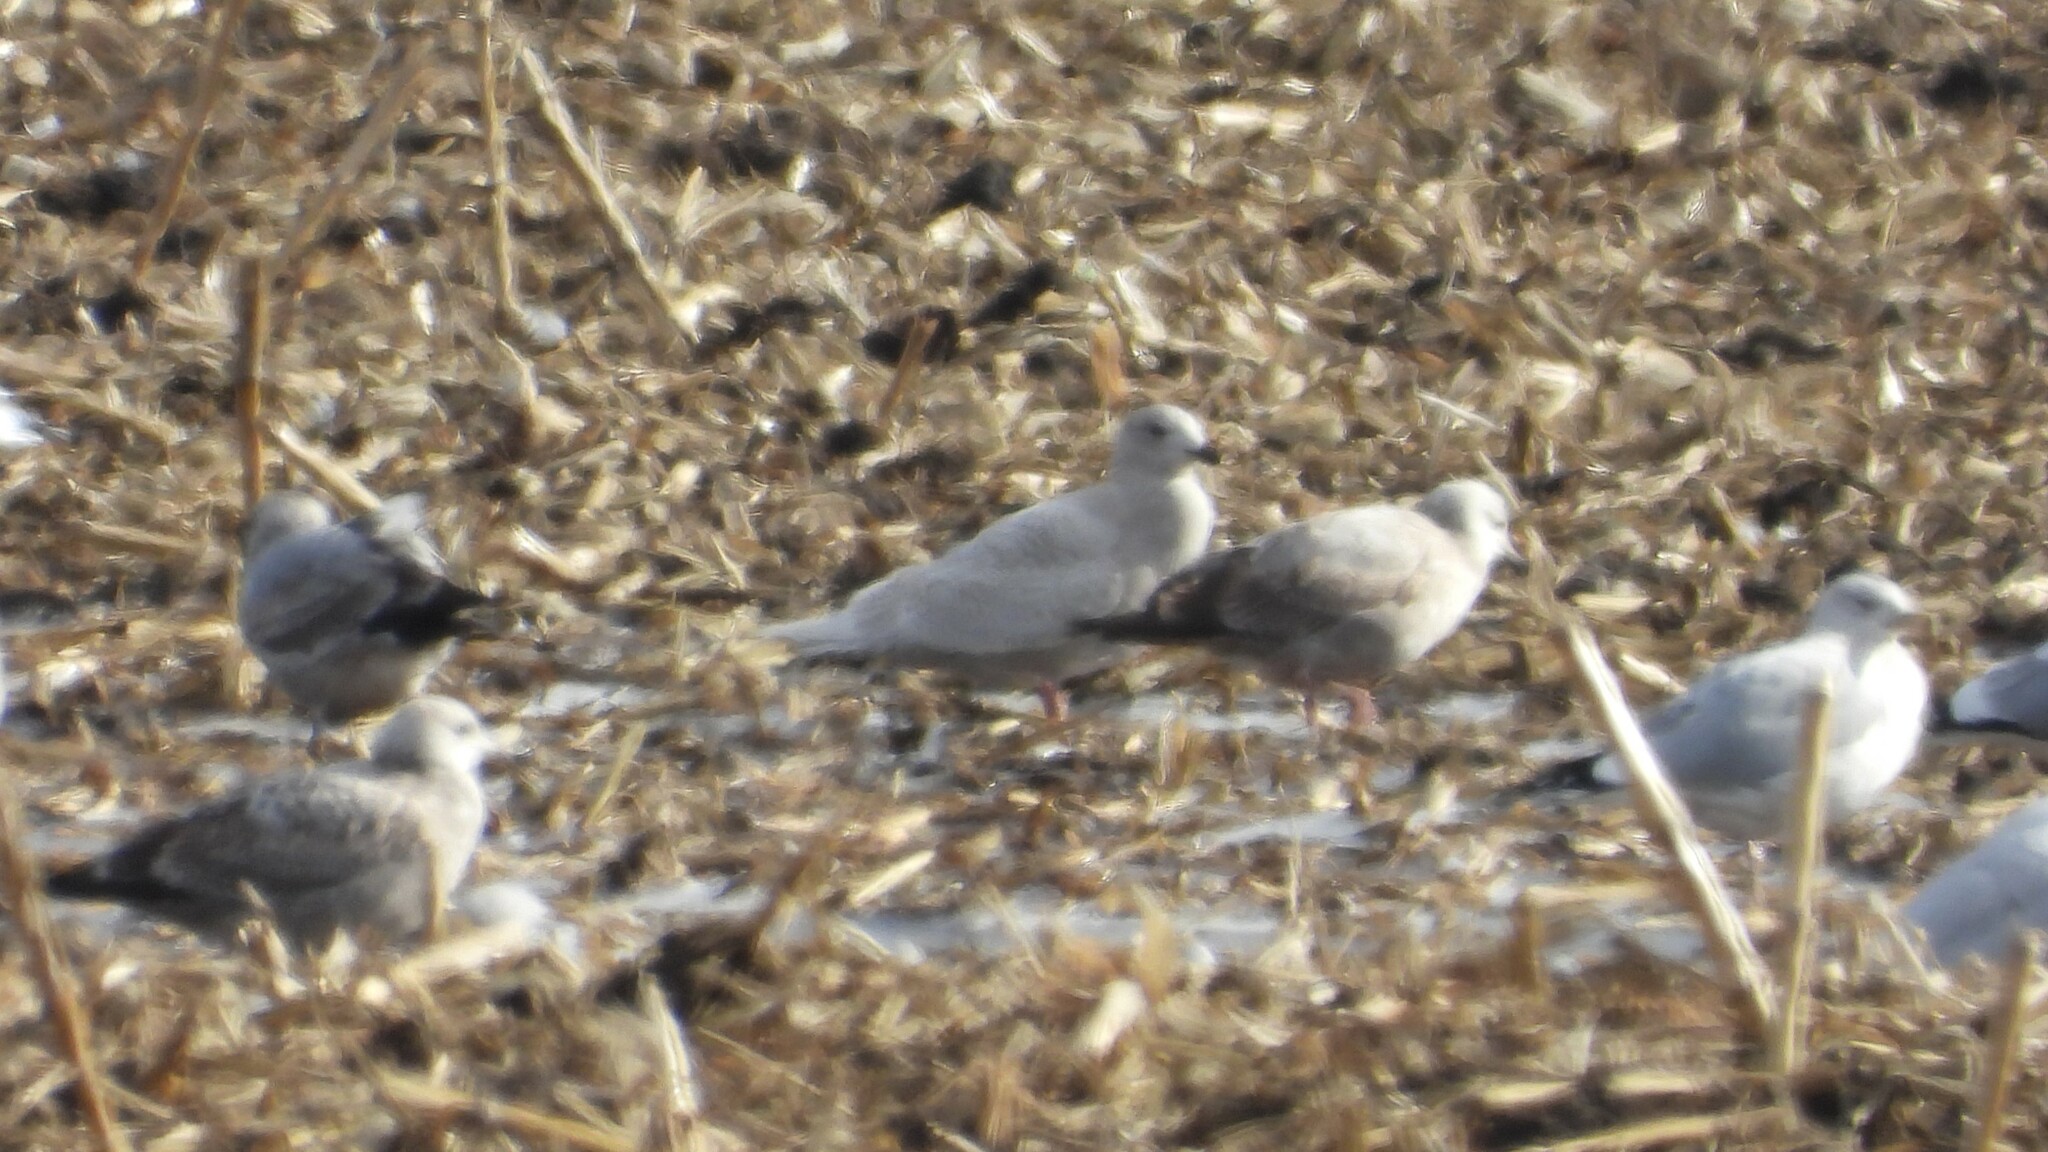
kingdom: Animalia
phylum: Chordata
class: Aves
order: Charadriiformes
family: Laridae
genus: Larus
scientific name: Larus glaucoides
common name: Iceland gull
